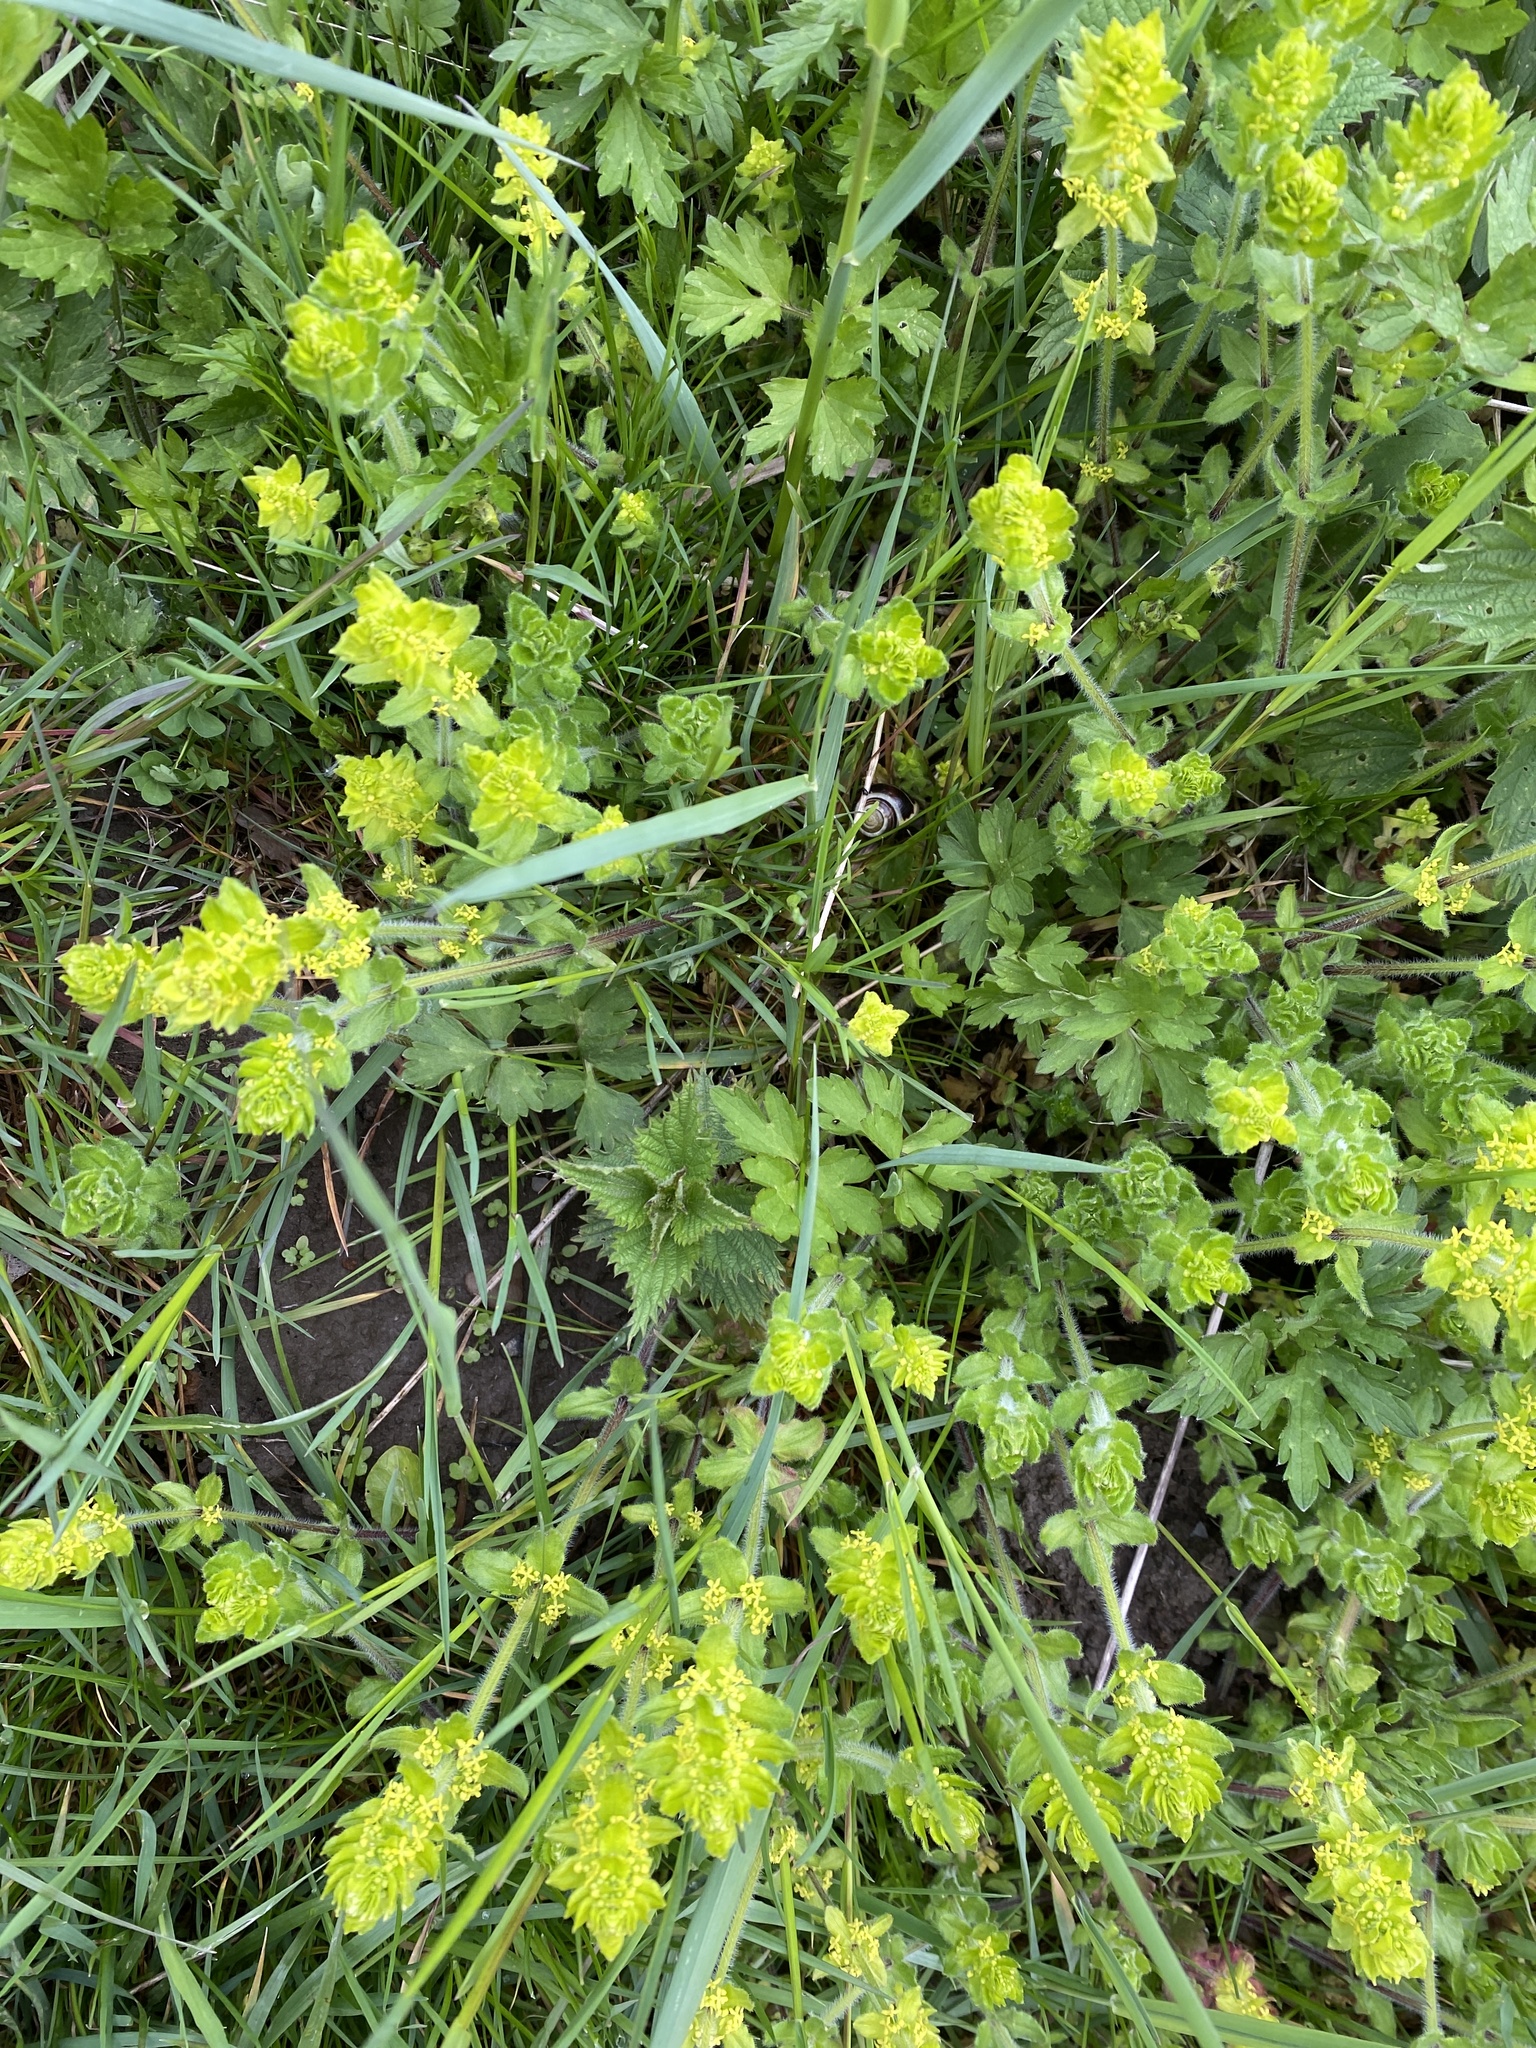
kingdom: Plantae
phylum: Tracheophyta
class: Magnoliopsida
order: Gentianales
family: Rubiaceae
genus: Cruciata
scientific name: Cruciata laevipes
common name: Crosswort
